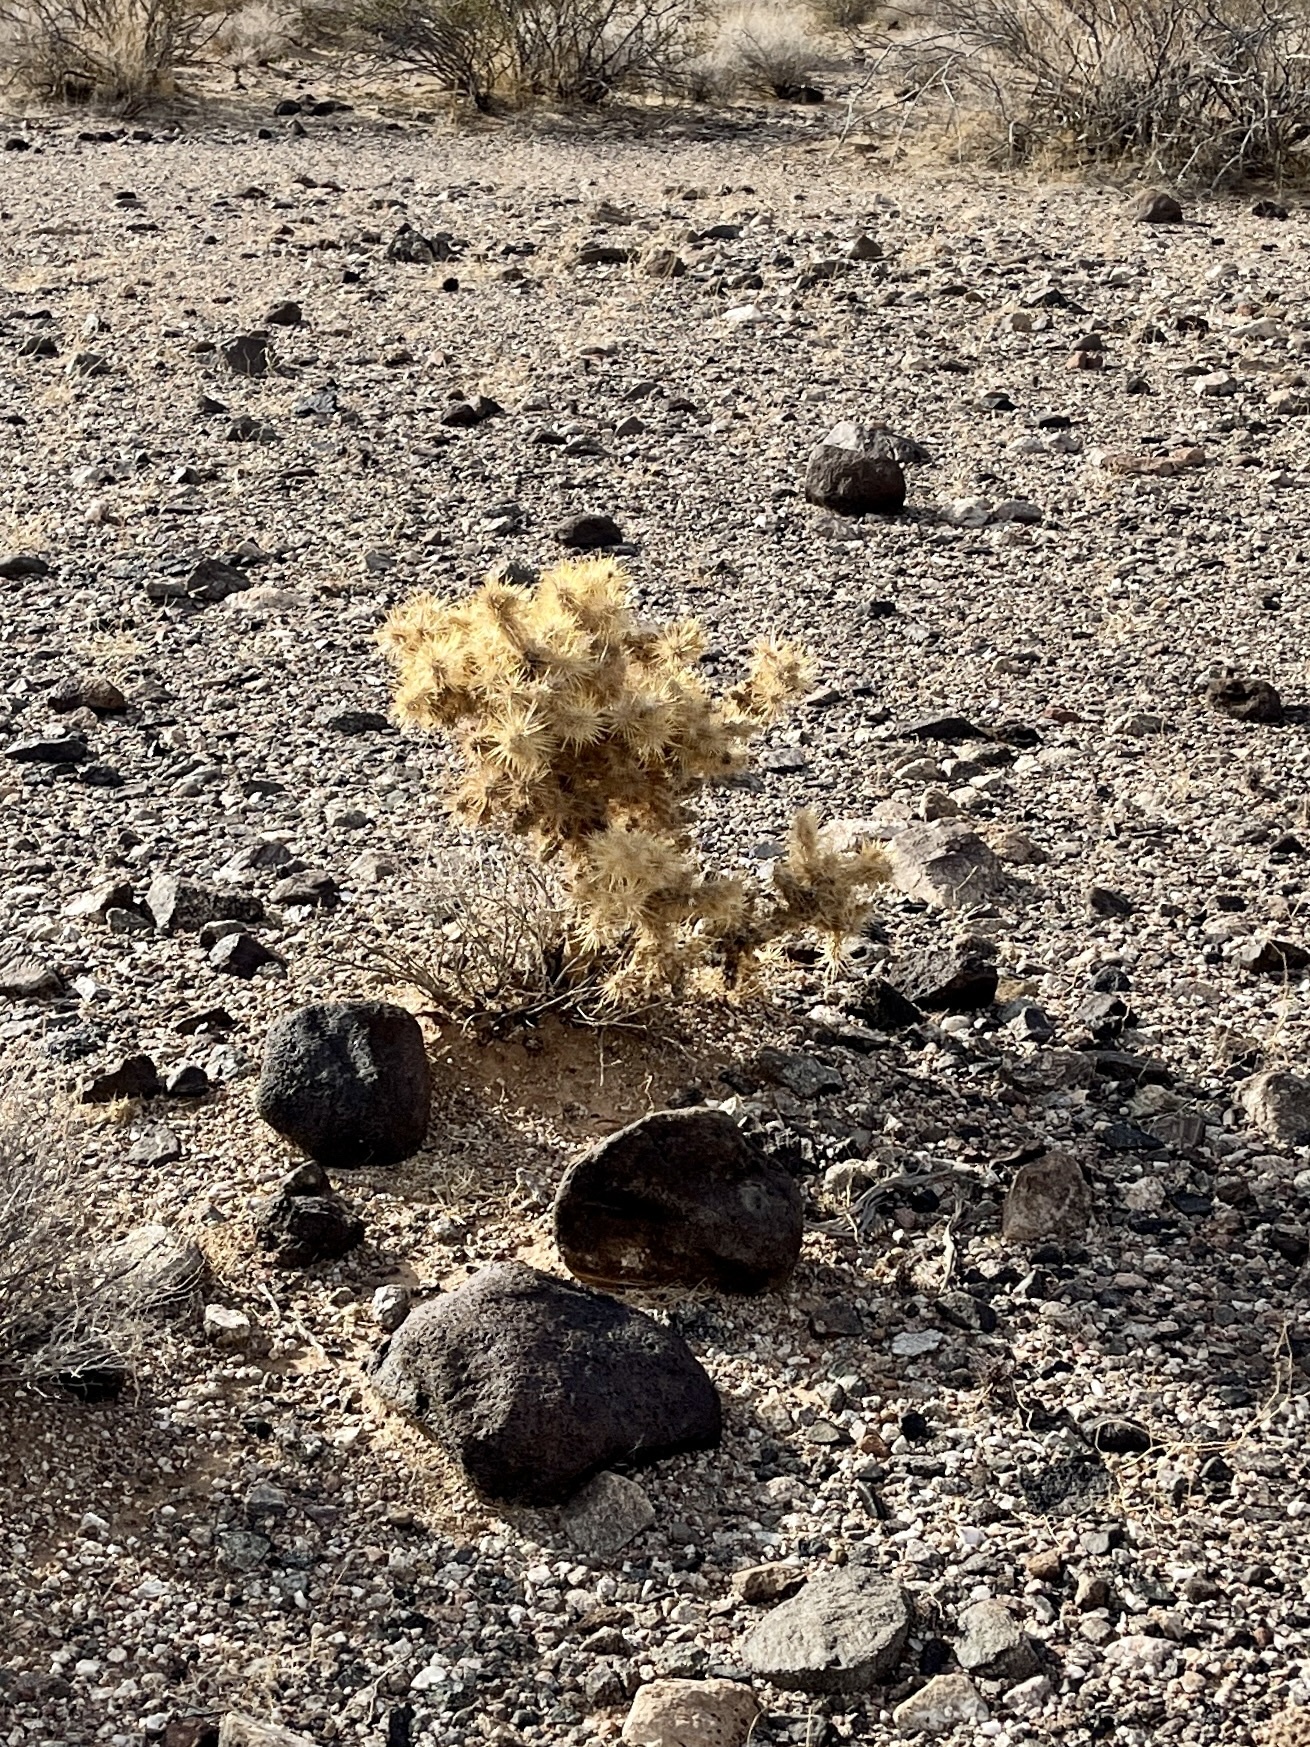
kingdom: Plantae
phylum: Tracheophyta
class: Magnoliopsida
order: Caryophyllales
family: Cactaceae
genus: Cylindropuntia
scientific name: Cylindropuntia echinocarpa
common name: Ground cholla
